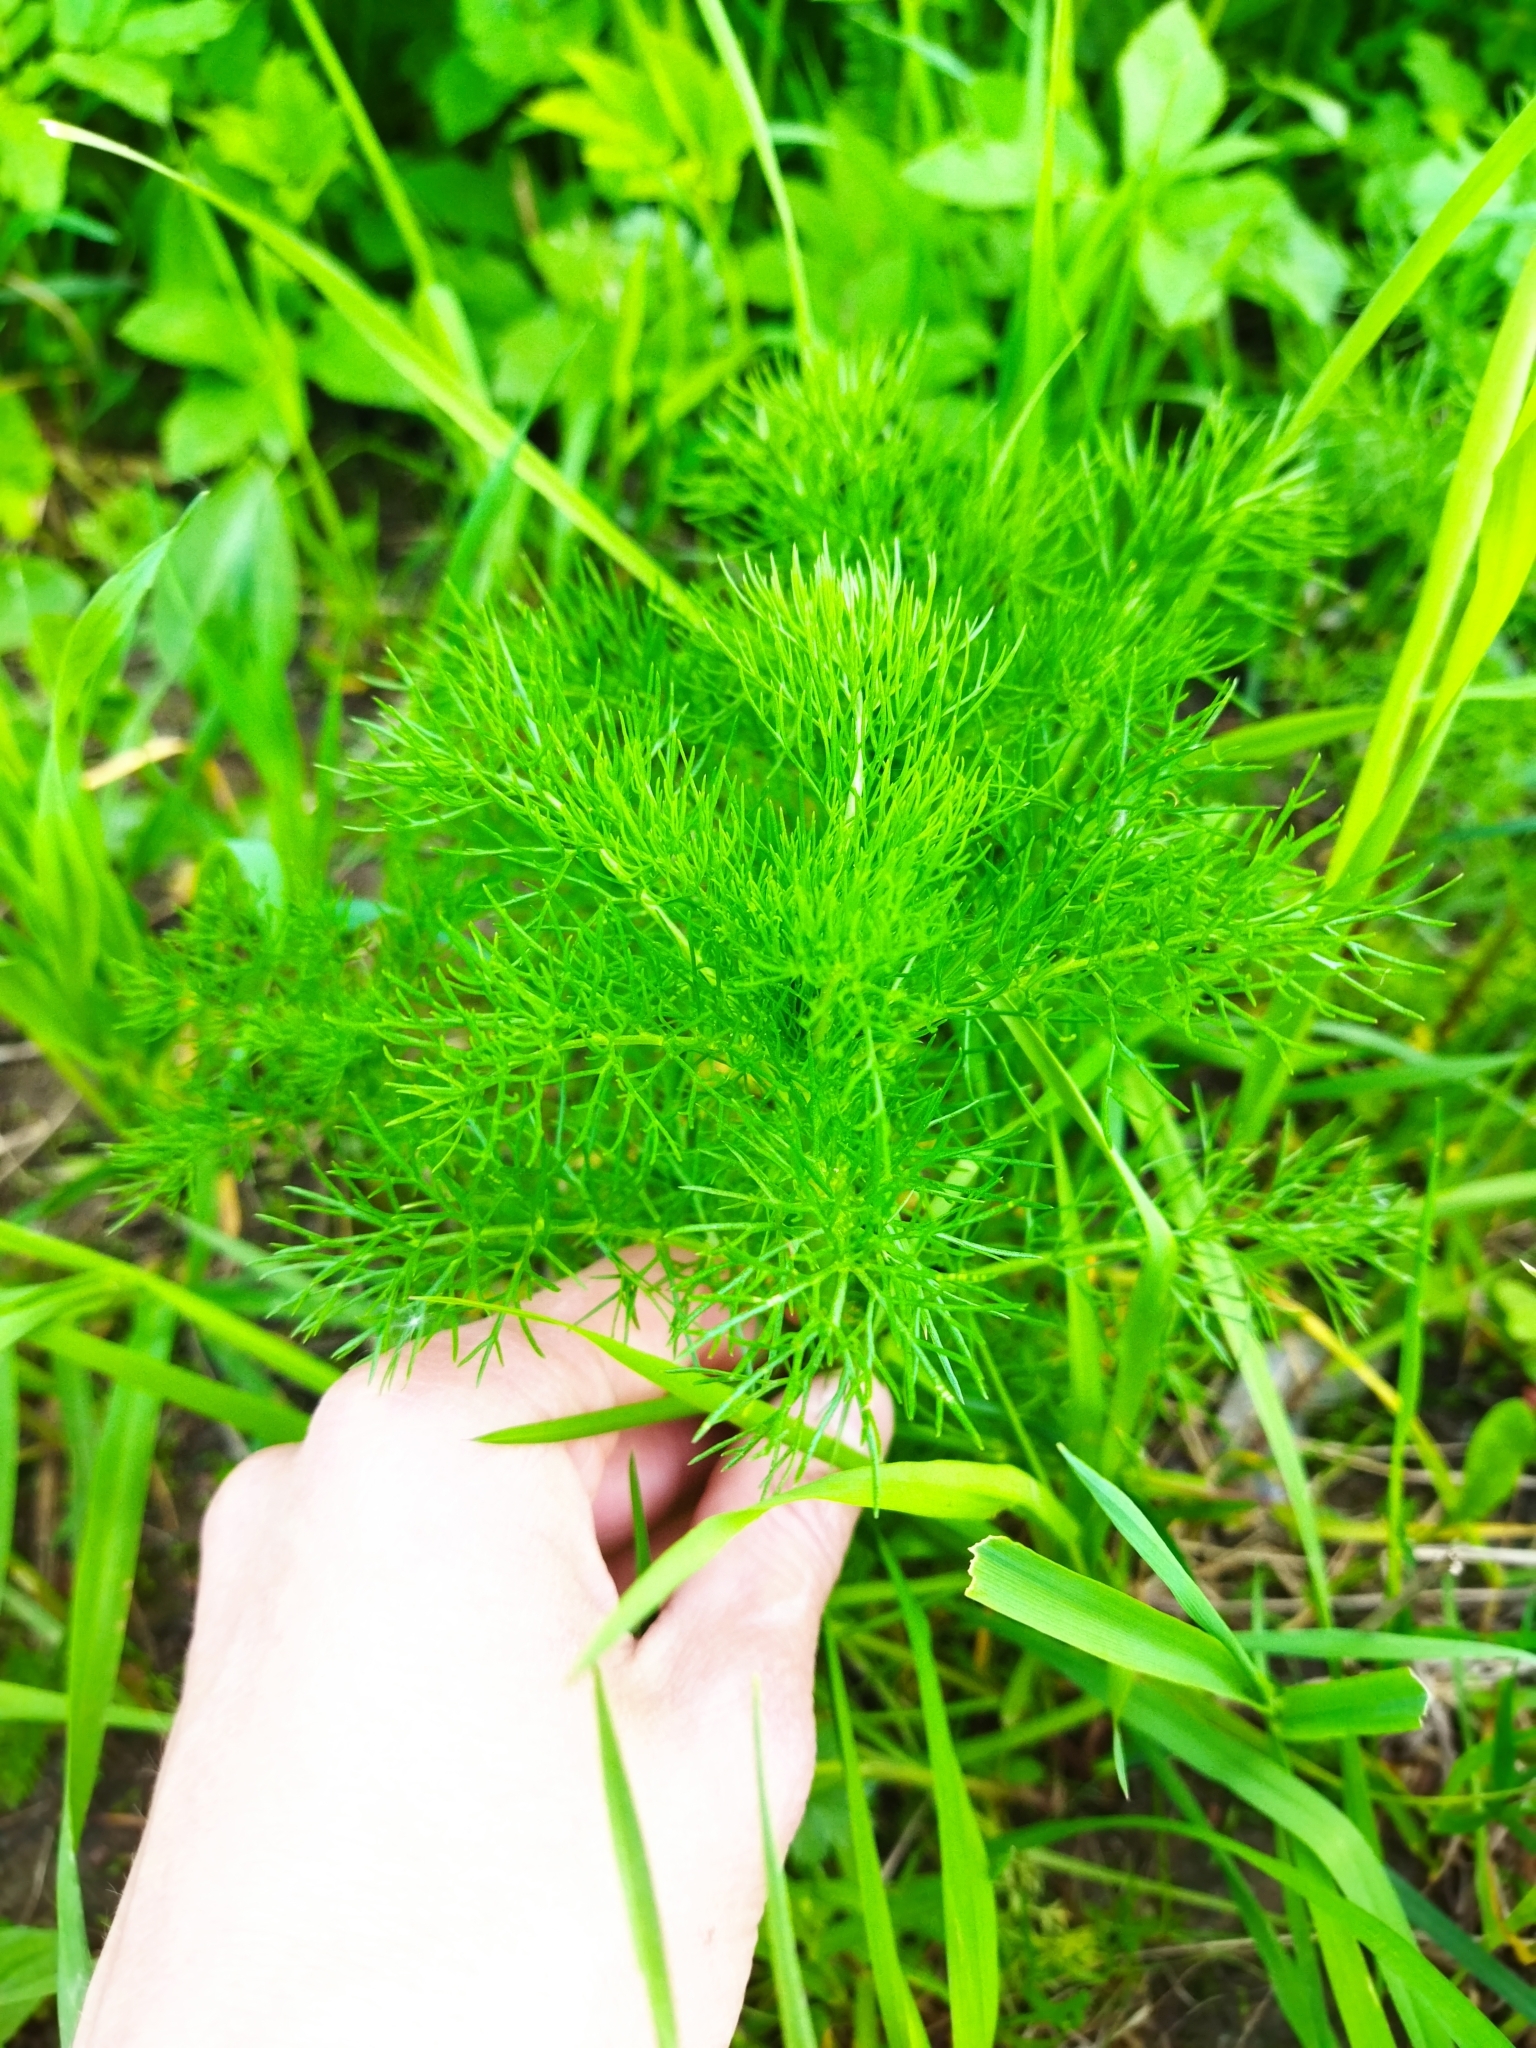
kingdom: Plantae
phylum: Tracheophyta
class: Magnoliopsida
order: Asterales
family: Asteraceae
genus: Tripleurospermum
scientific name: Tripleurospermum inodorum
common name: Scentless mayweed
